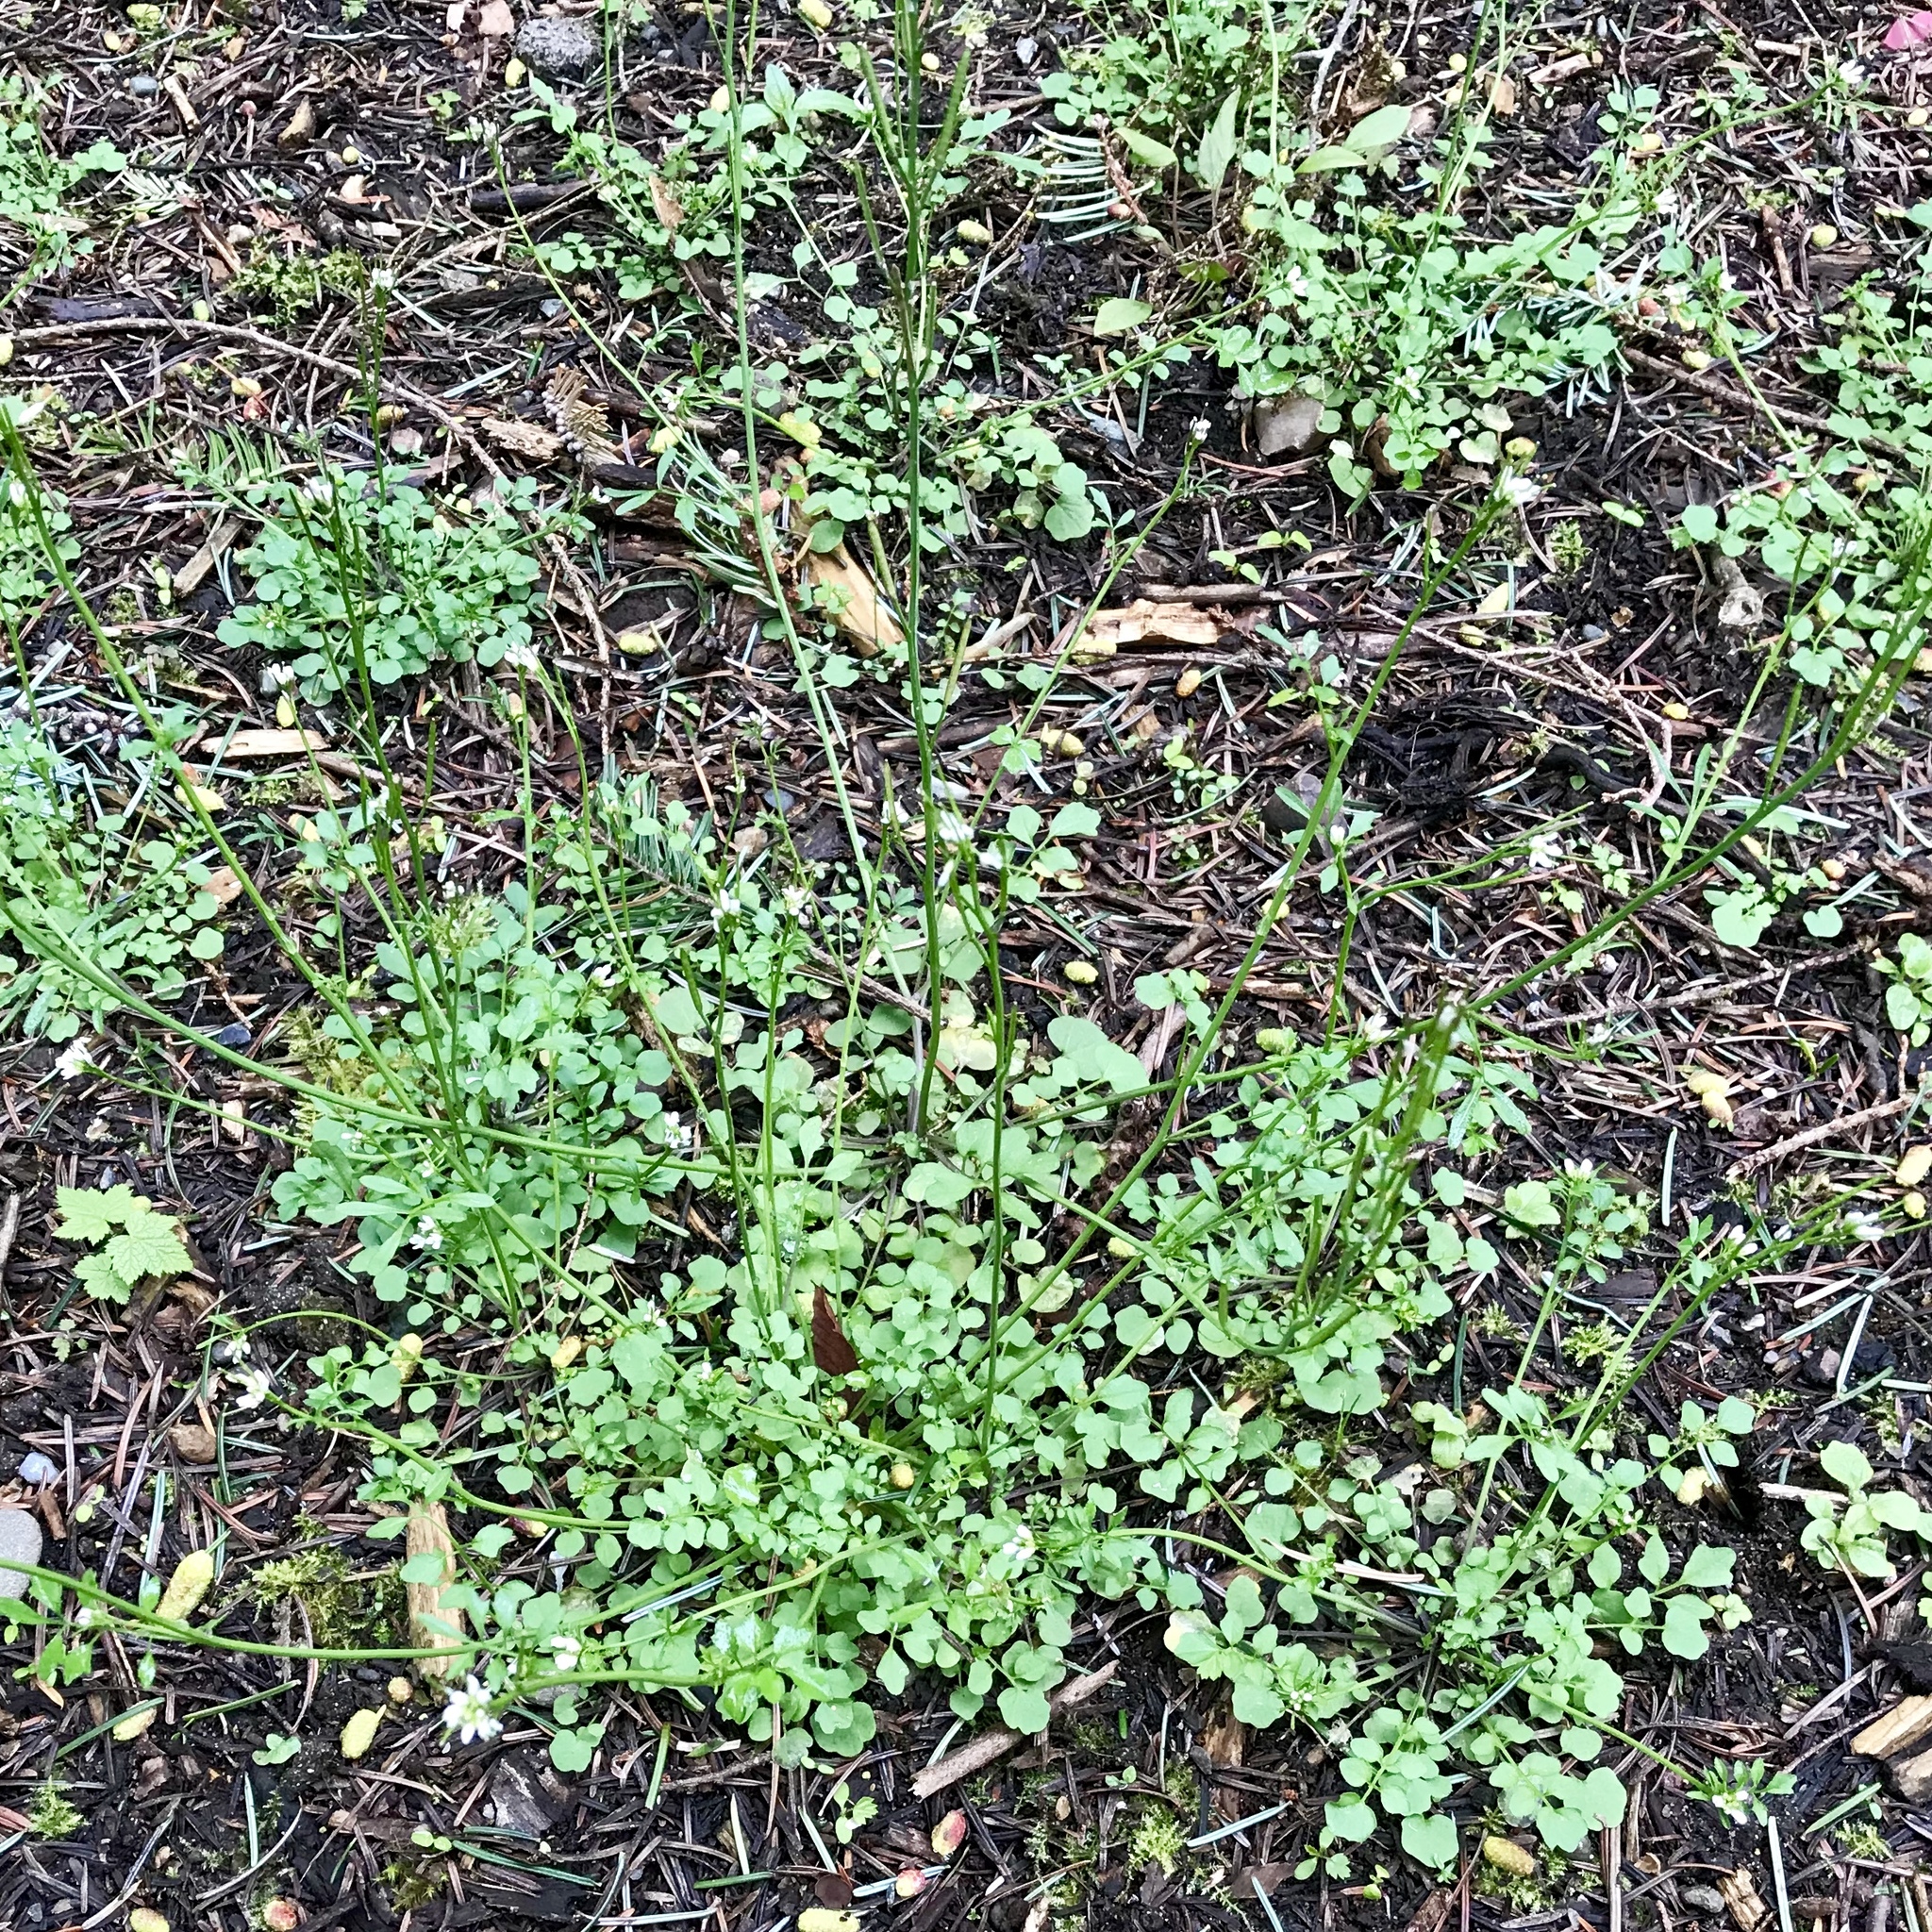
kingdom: Plantae
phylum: Tracheophyta
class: Magnoliopsida
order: Brassicales
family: Brassicaceae
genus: Cardamine
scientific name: Cardamine hirsuta
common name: Hairy bittercress
